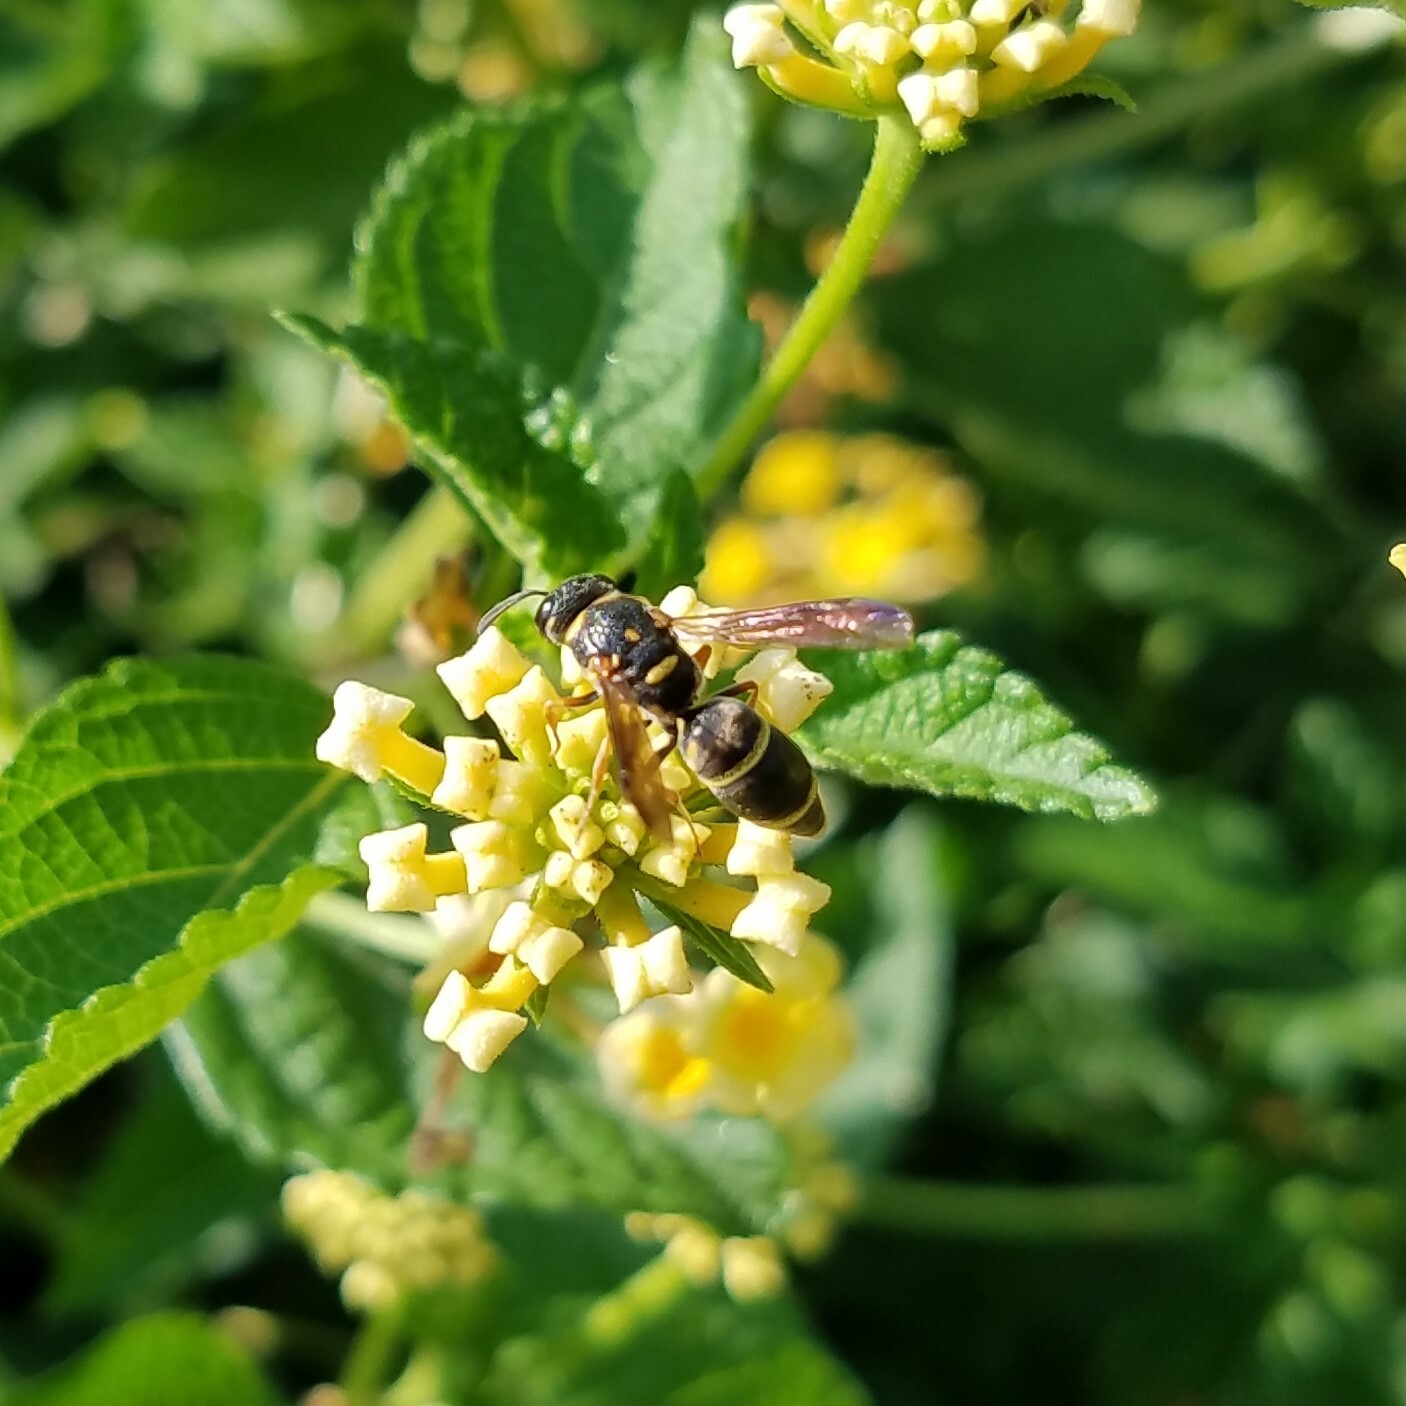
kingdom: Animalia
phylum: Arthropoda
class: Insecta
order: Hymenoptera
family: Eumenidae
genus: Parancistrocerus
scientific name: Parancistrocerus fulvipes
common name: Potter wasp
